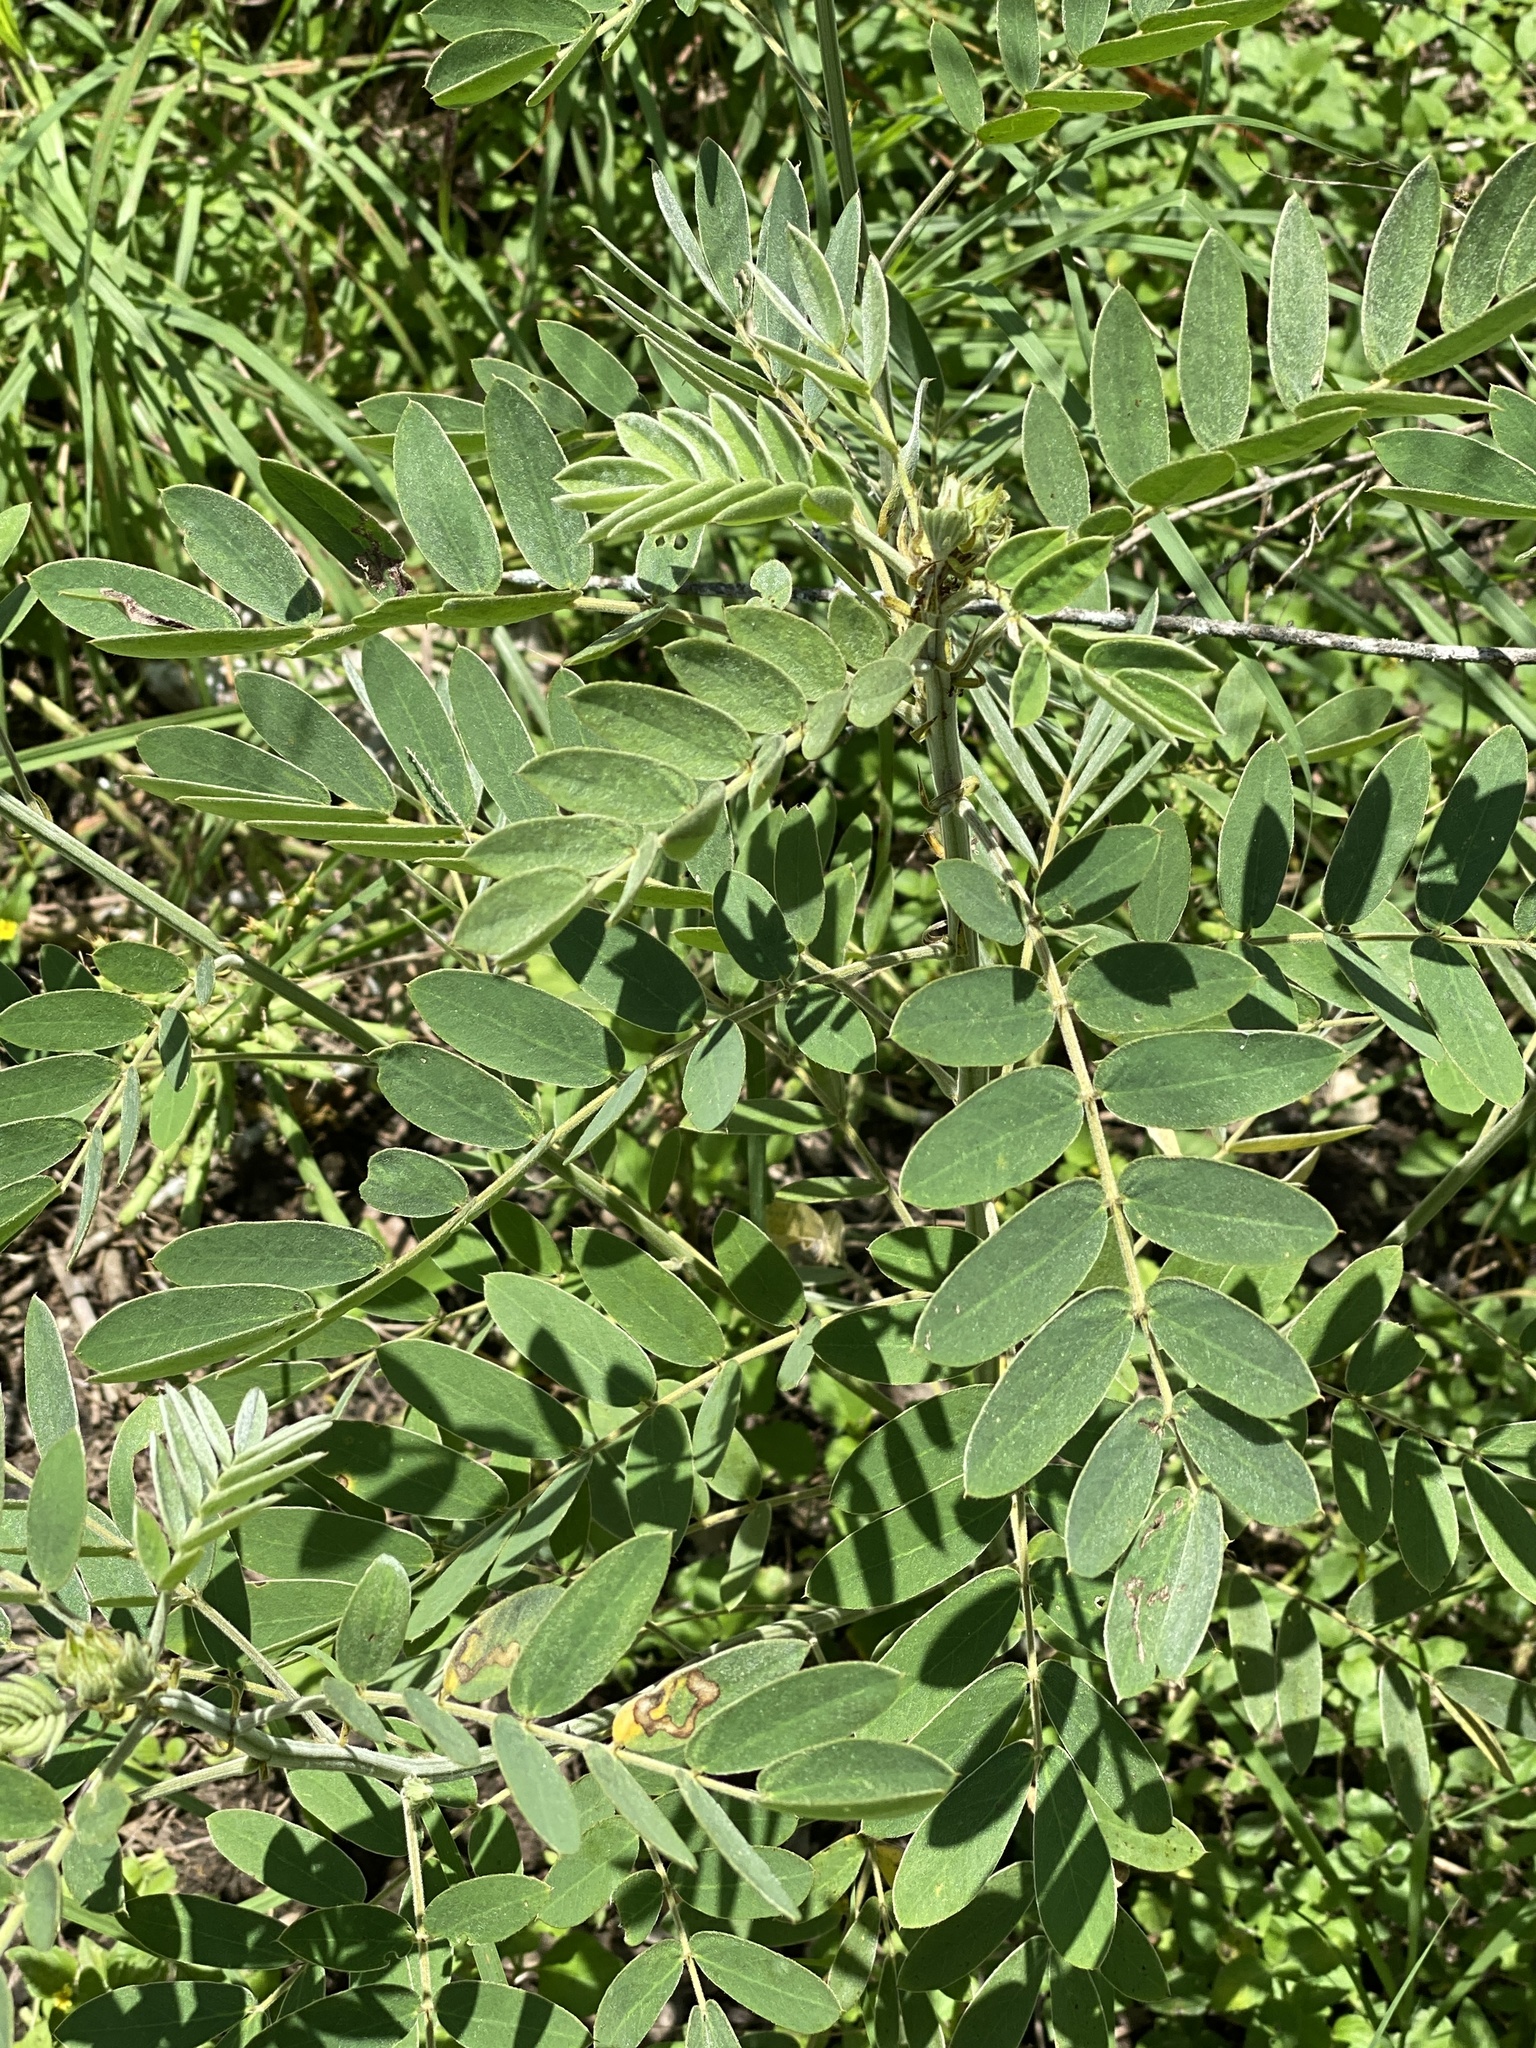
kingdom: Plantae
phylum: Tracheophyta
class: Magnoliopsida
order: Fabales
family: Fabaceae
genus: Senna
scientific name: Senna lindheimeriana
